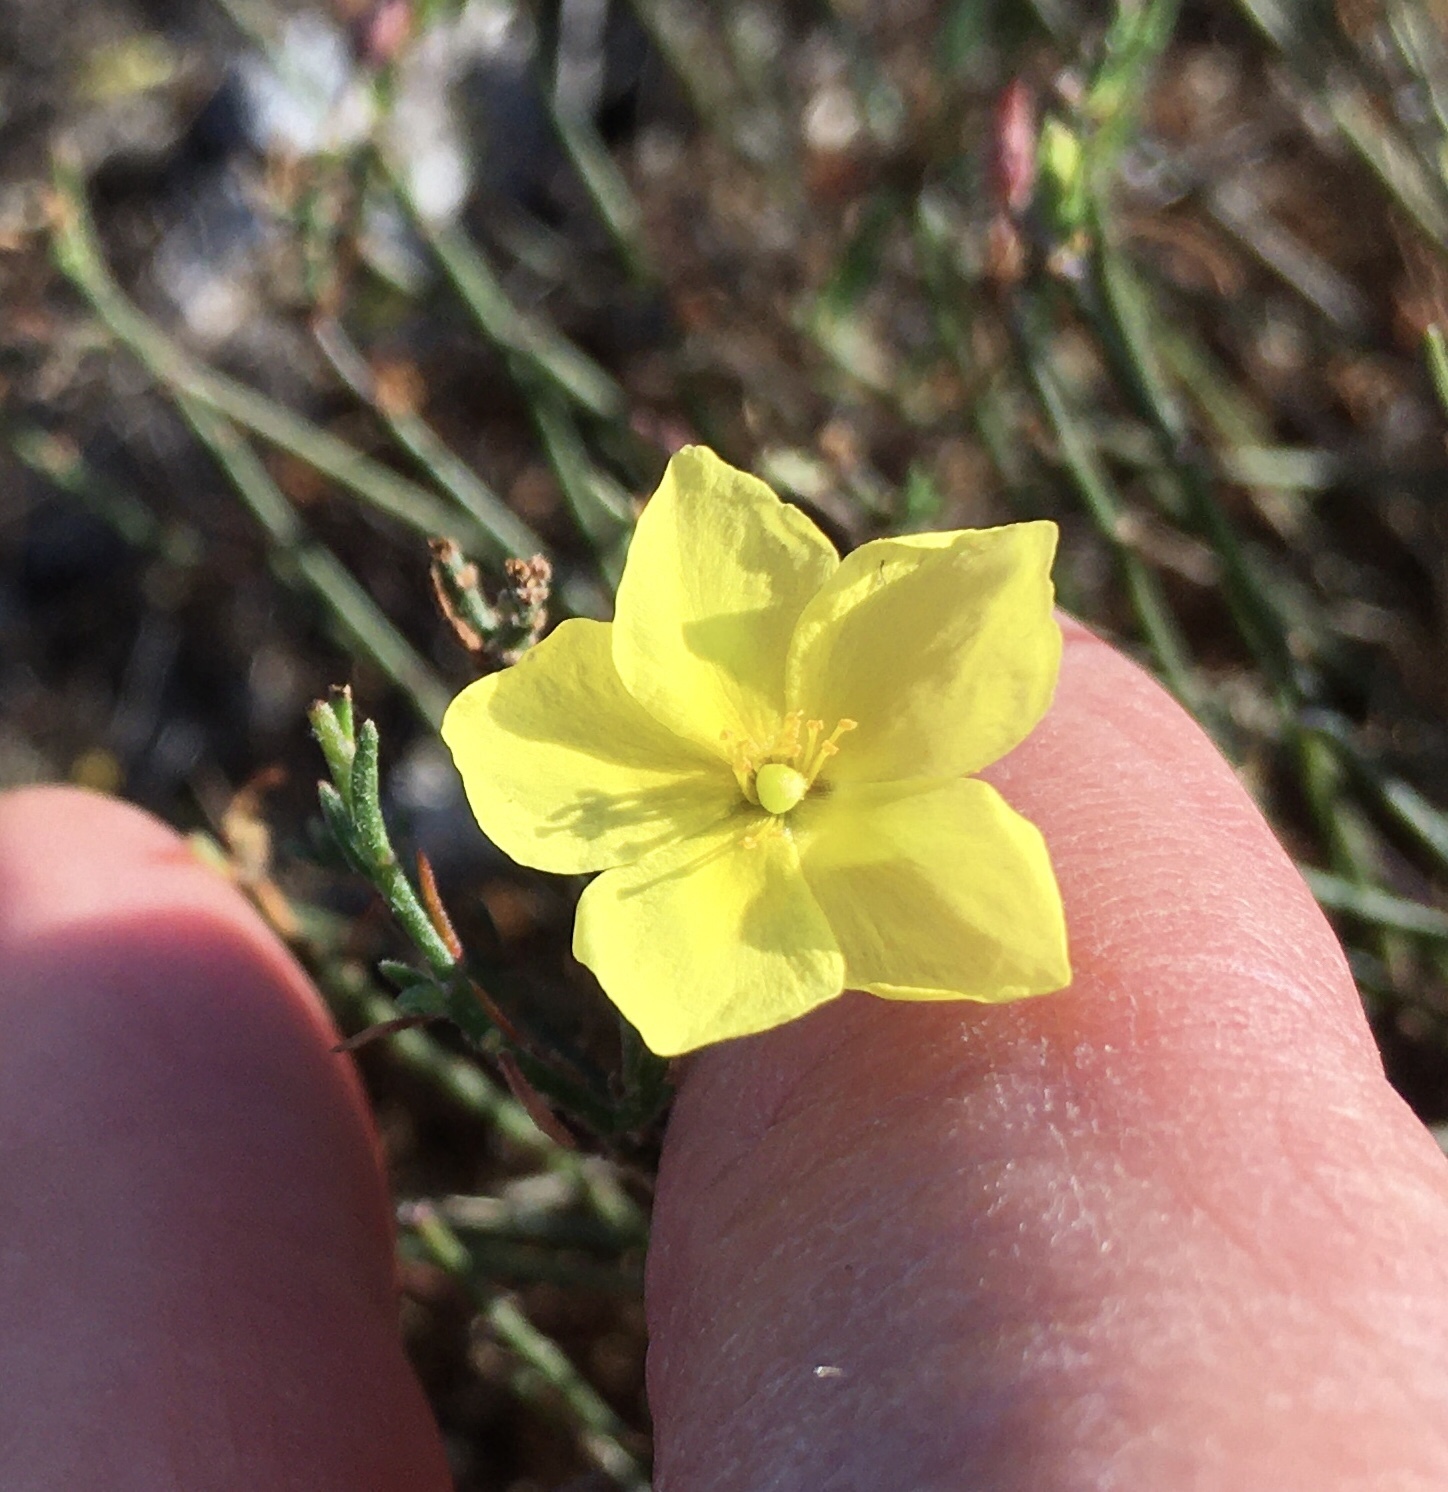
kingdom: Plantae
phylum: Tracheophyta
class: Magnoliopsida
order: Malvales
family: Cistaceae
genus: Crocanthemum
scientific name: Crocanthemum scoparium
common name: Broom-rose
